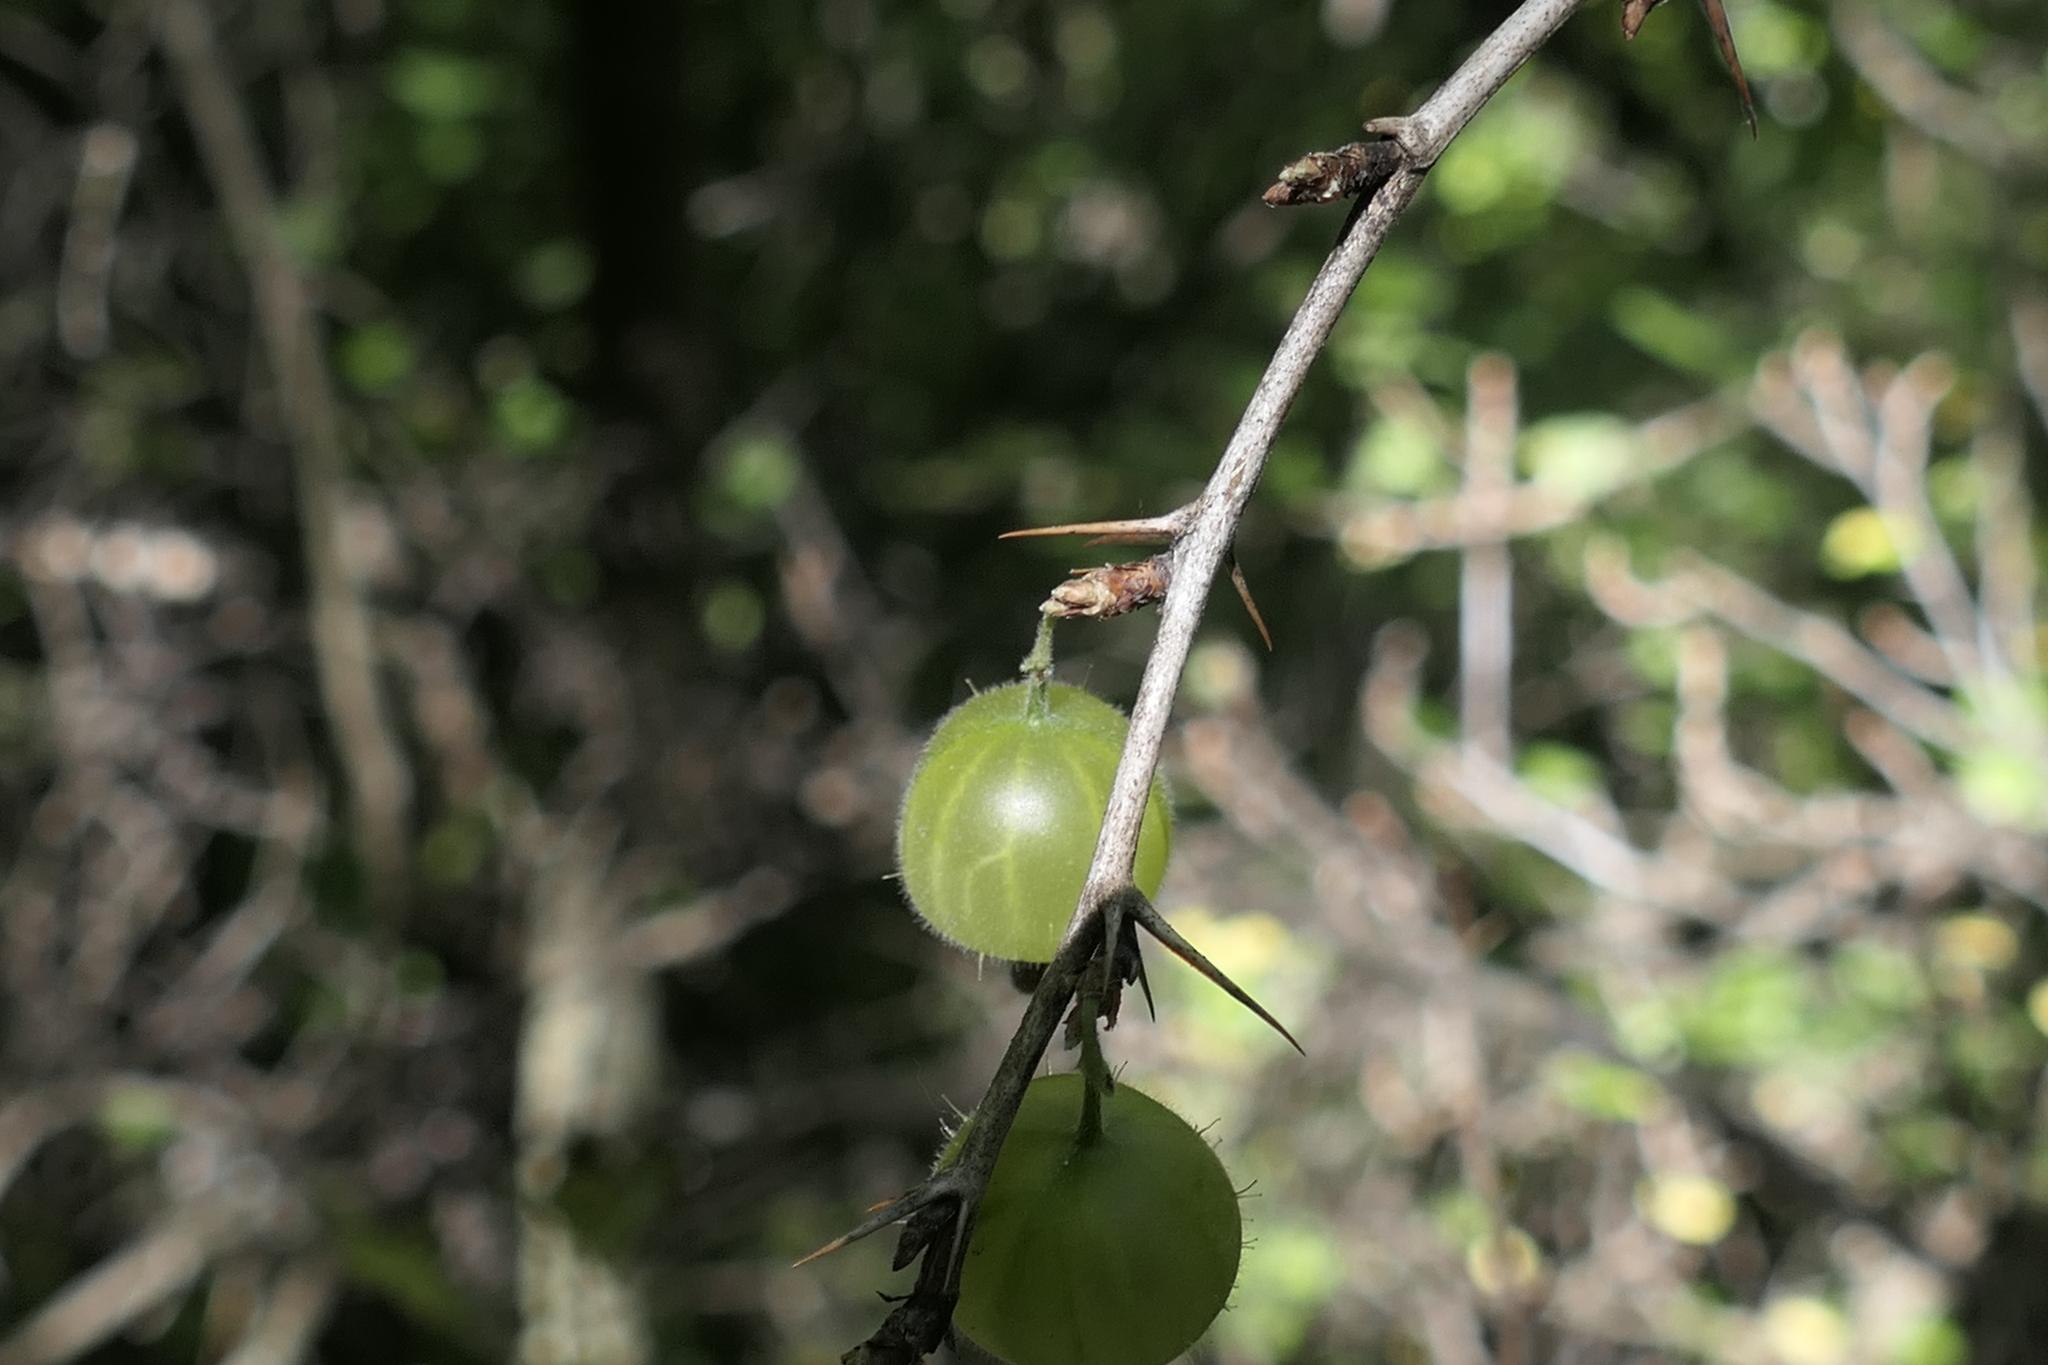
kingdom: Plantae
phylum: Tracheophyta
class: Magnoliopsida
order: Saxifragales
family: Grossulariaceae
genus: Ribes
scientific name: Ribes uva-crispa
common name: Gooseberry
